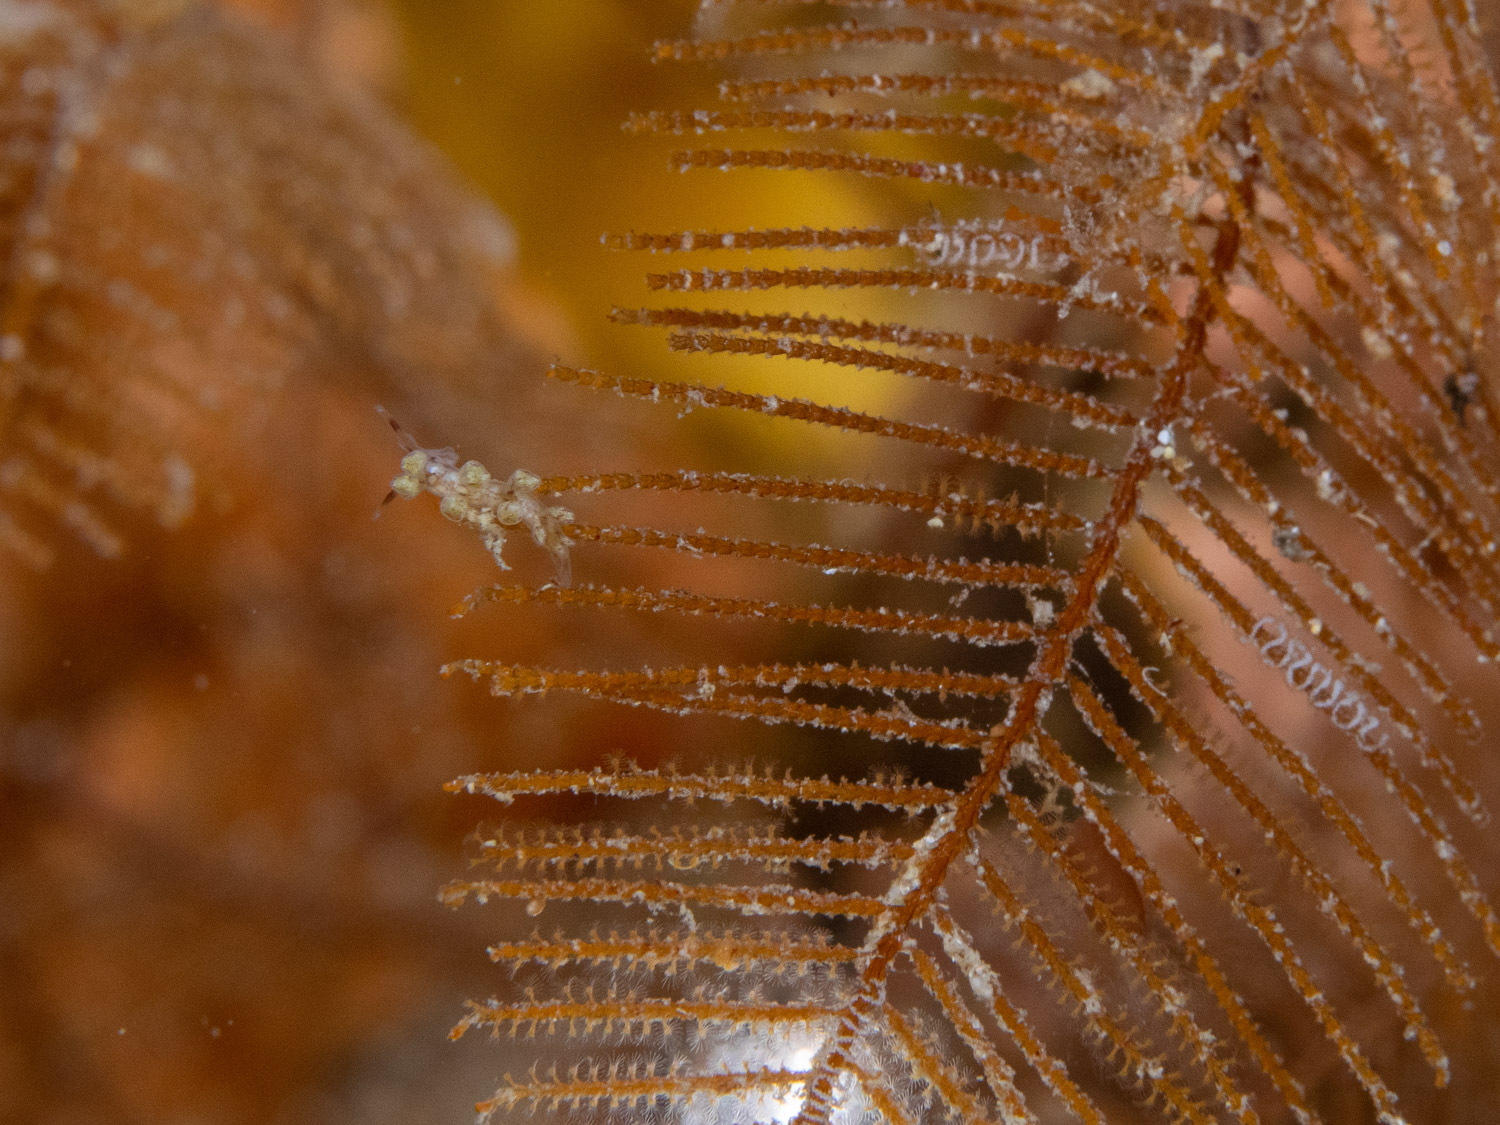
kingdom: Animalia
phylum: Mollusca
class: Gastropoda
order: Nudibranchia
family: Dotidae
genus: Doto
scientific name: Doto pita
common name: Pita doto
